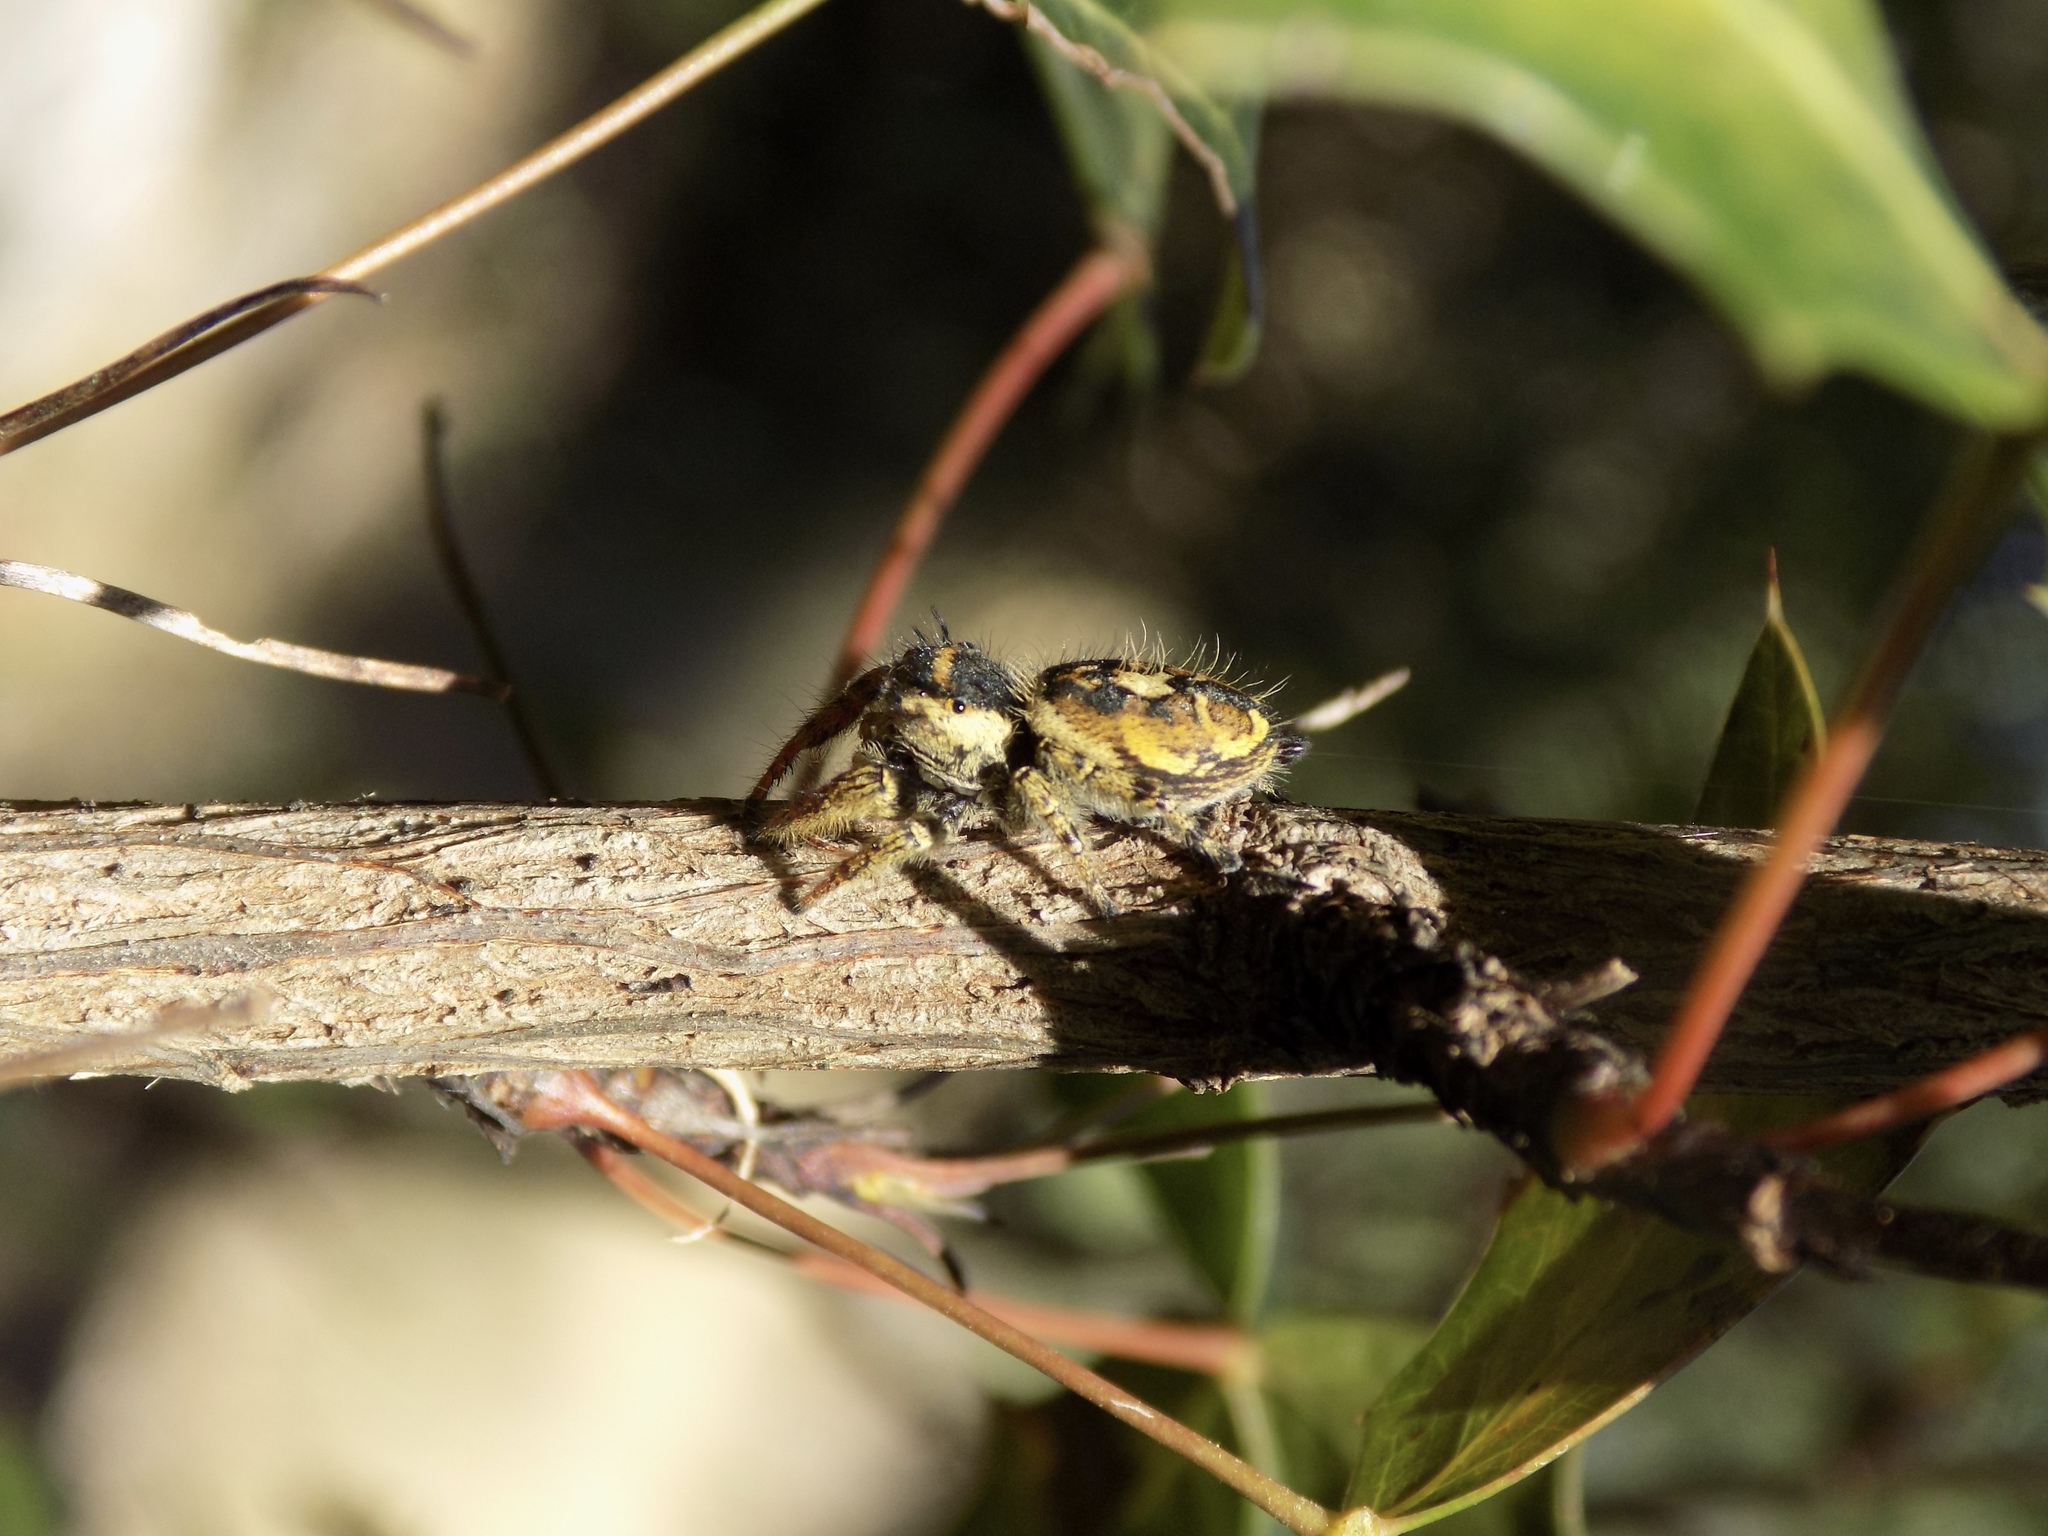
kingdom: Animalia
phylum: Arthropoda
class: Arachnida
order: Araneae
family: Salticidae
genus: Phidippus
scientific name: Phidippus arizonensis
